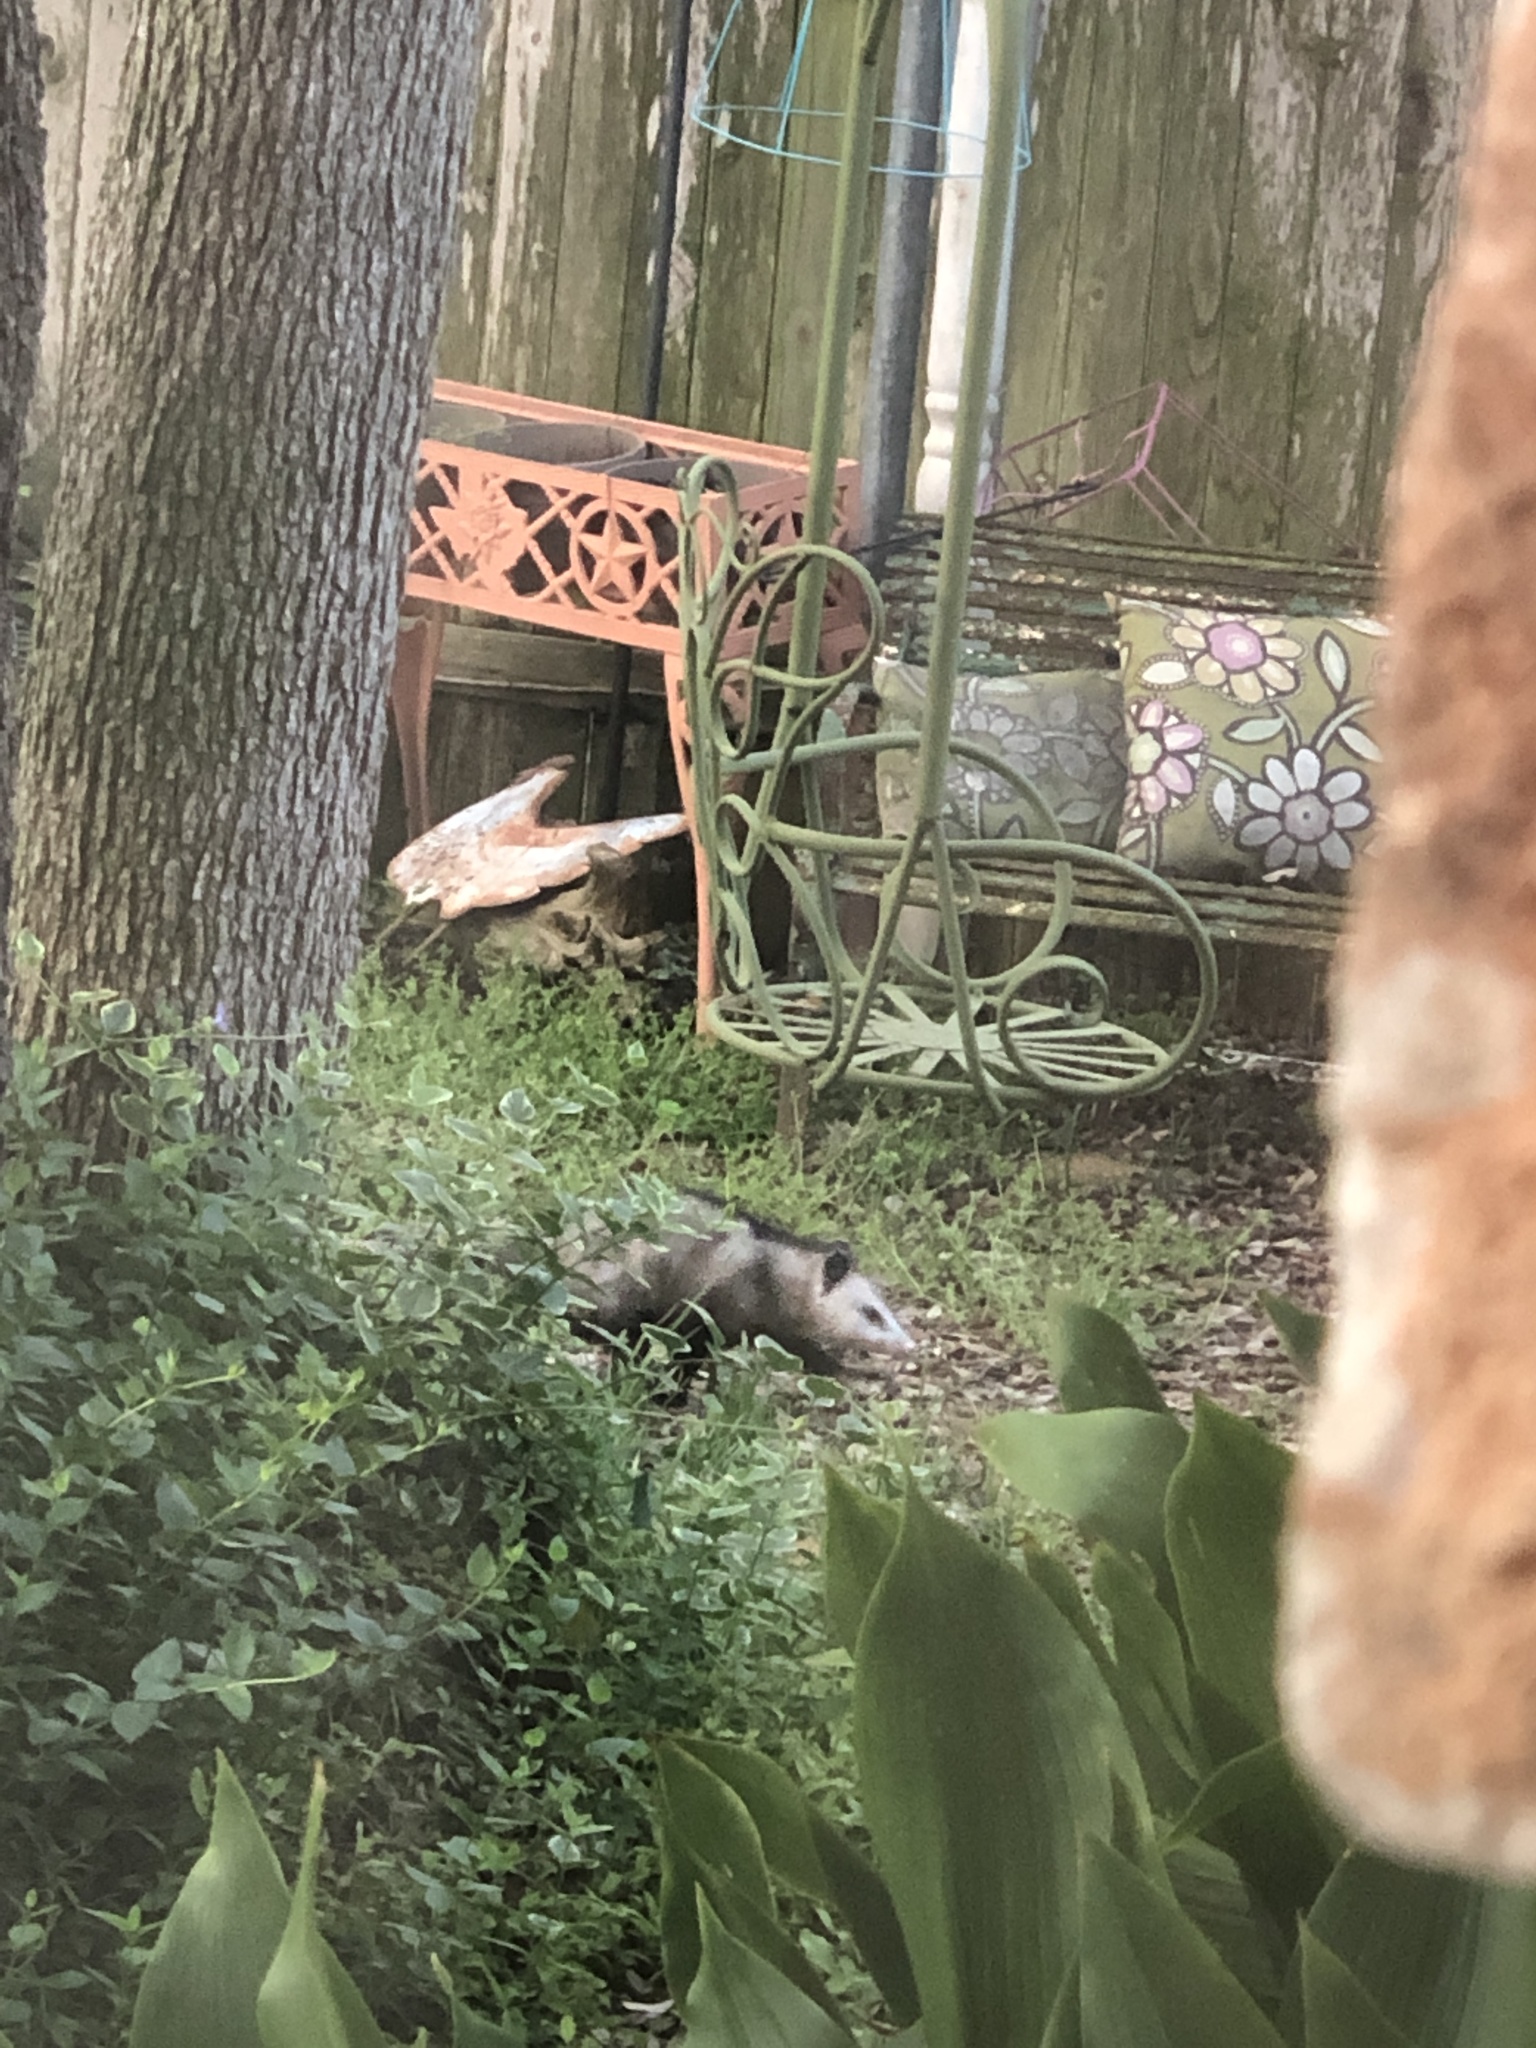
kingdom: Animalia
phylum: Chordata
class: Mammalia
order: Didelphimorphia
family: Didelphidae
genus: Didelphis
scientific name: Didelphis virginiana
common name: Virginia opossum
